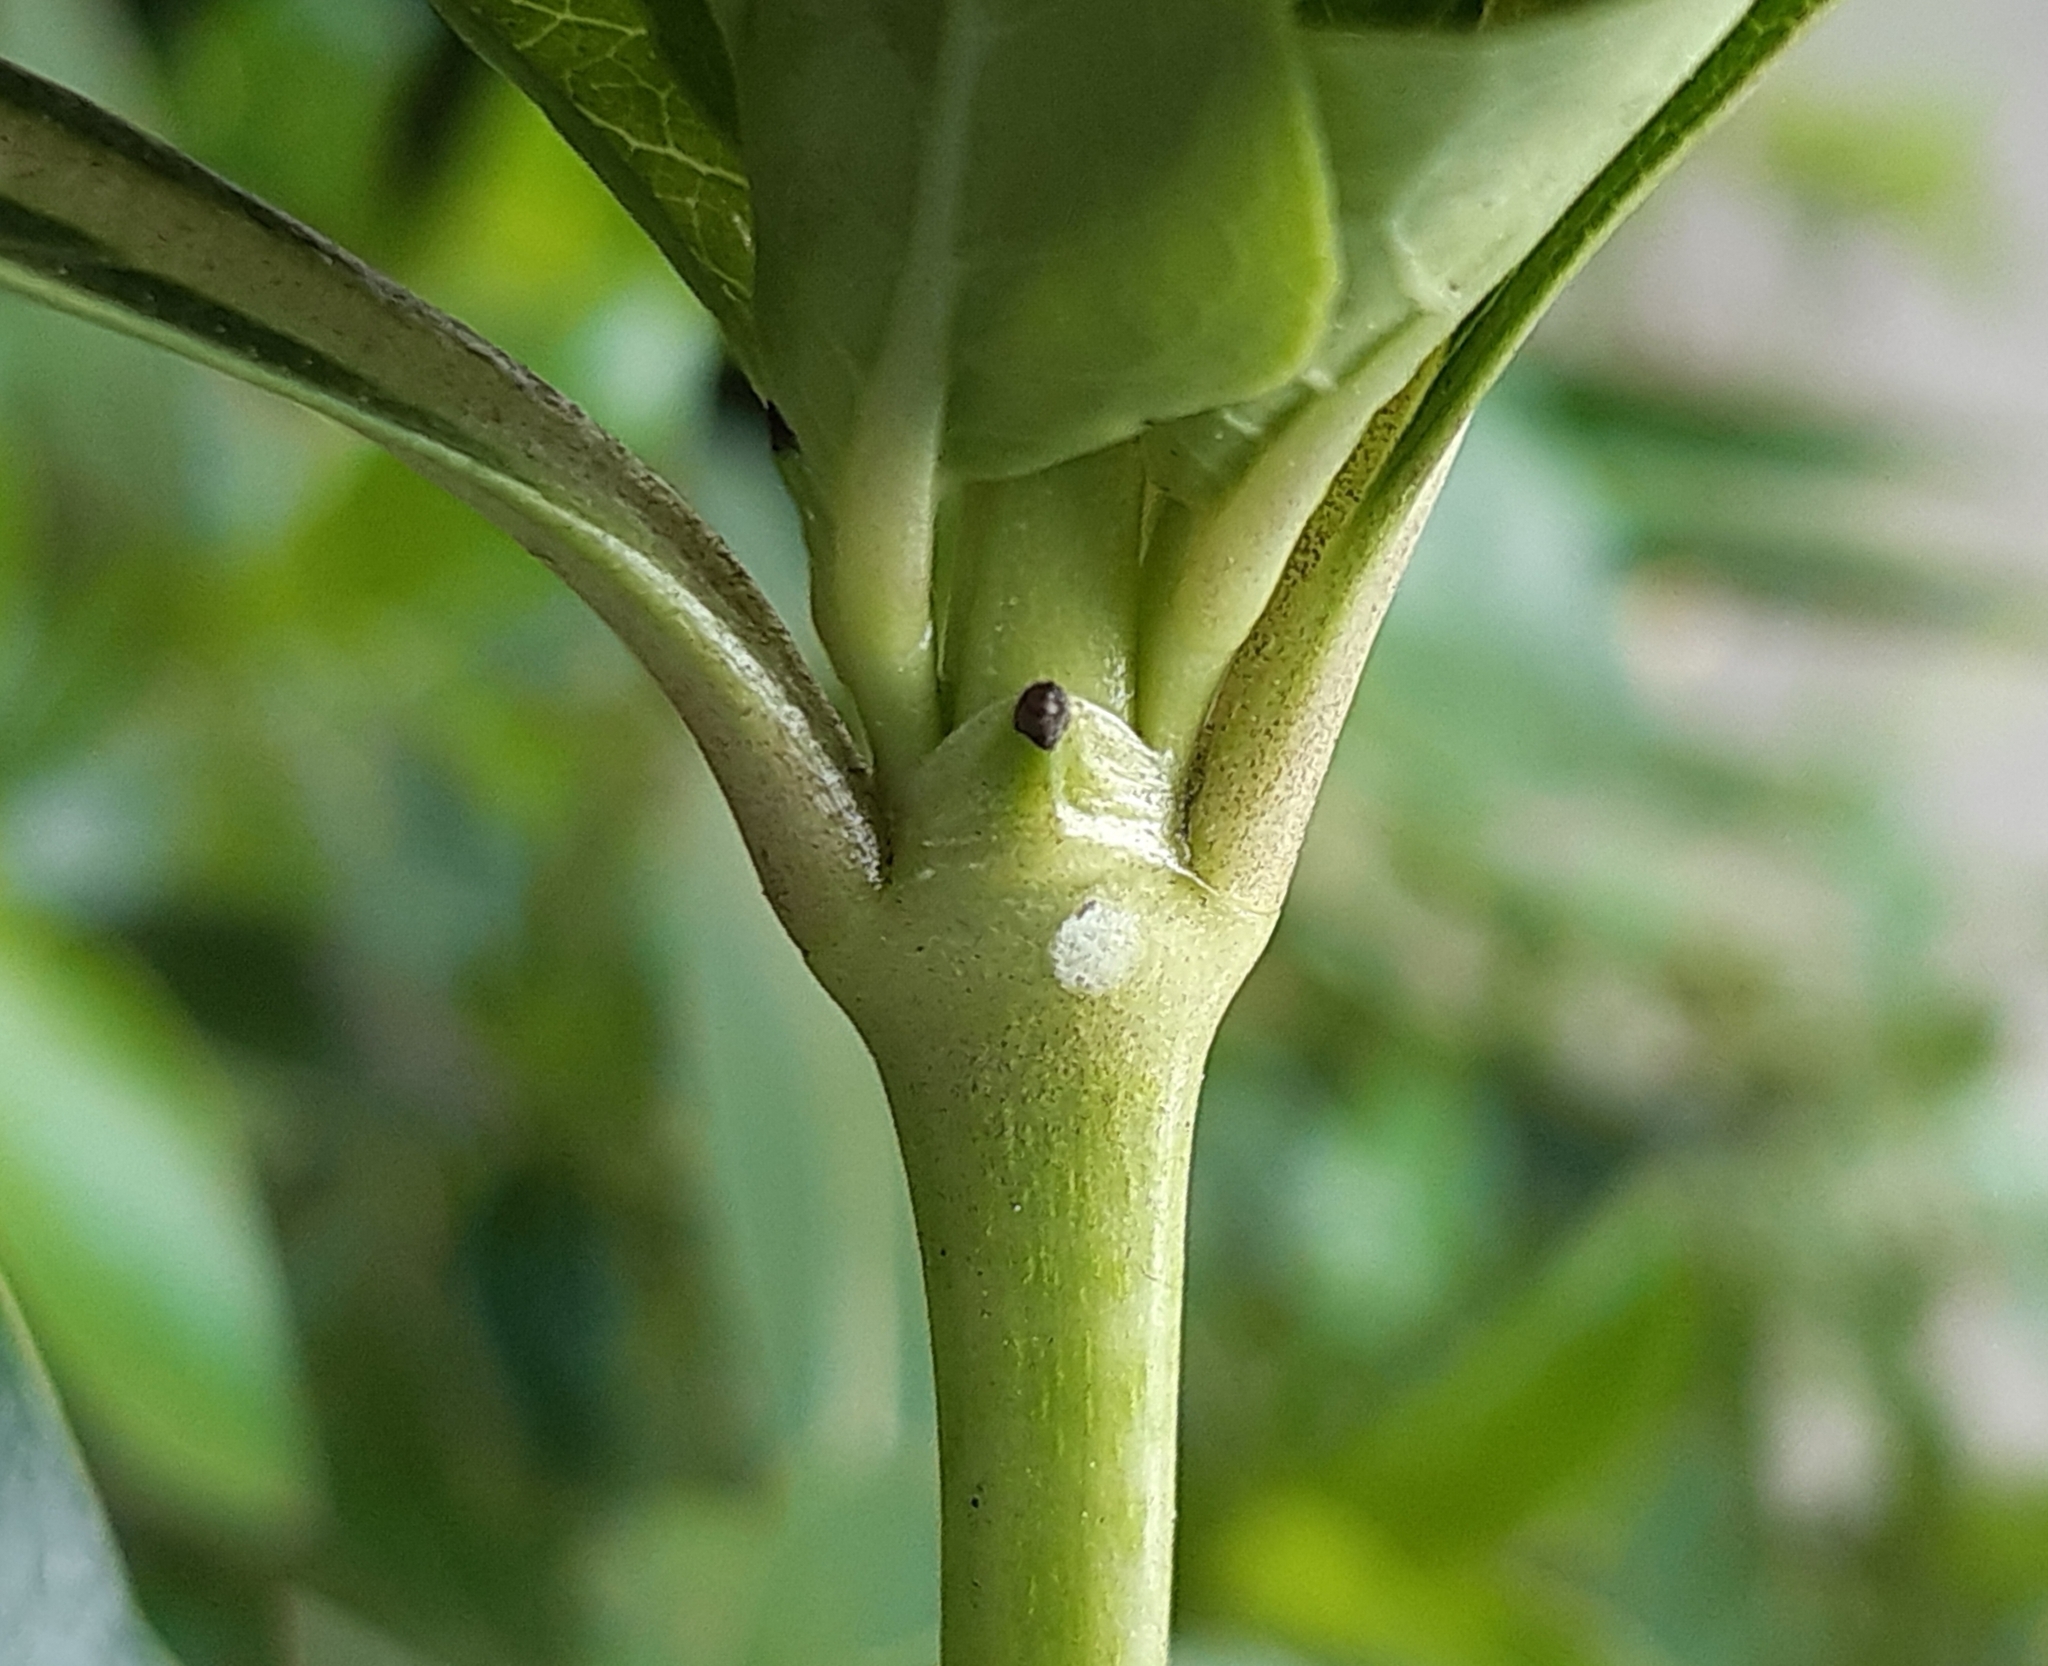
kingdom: Plantae
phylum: Tracheophyta
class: Magnoliopsida
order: Gentianales
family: Rubiaceae
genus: Coprosma
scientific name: Coprosma robusta
